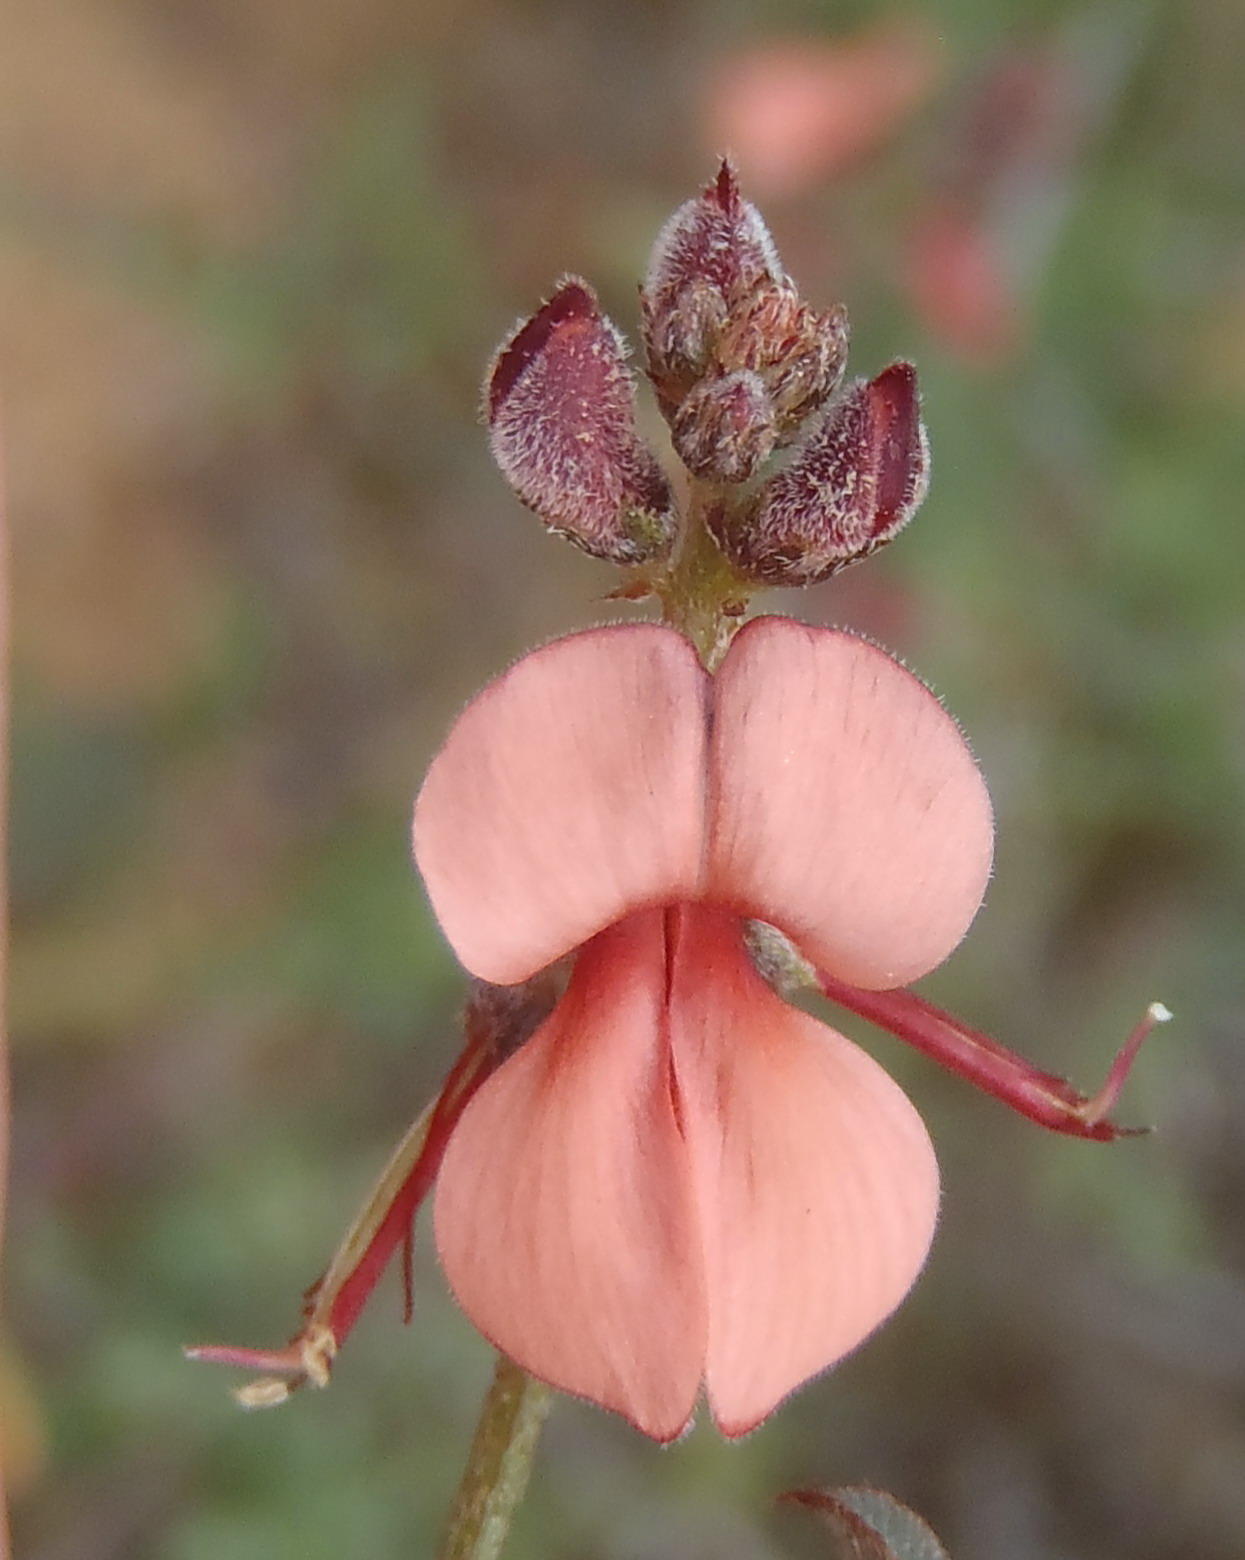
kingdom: Plantae
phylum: Tracheophyta
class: Magnoliopsida
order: Fabales
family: Fabaceae
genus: Indigofera
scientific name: Indigofera heterophylla
